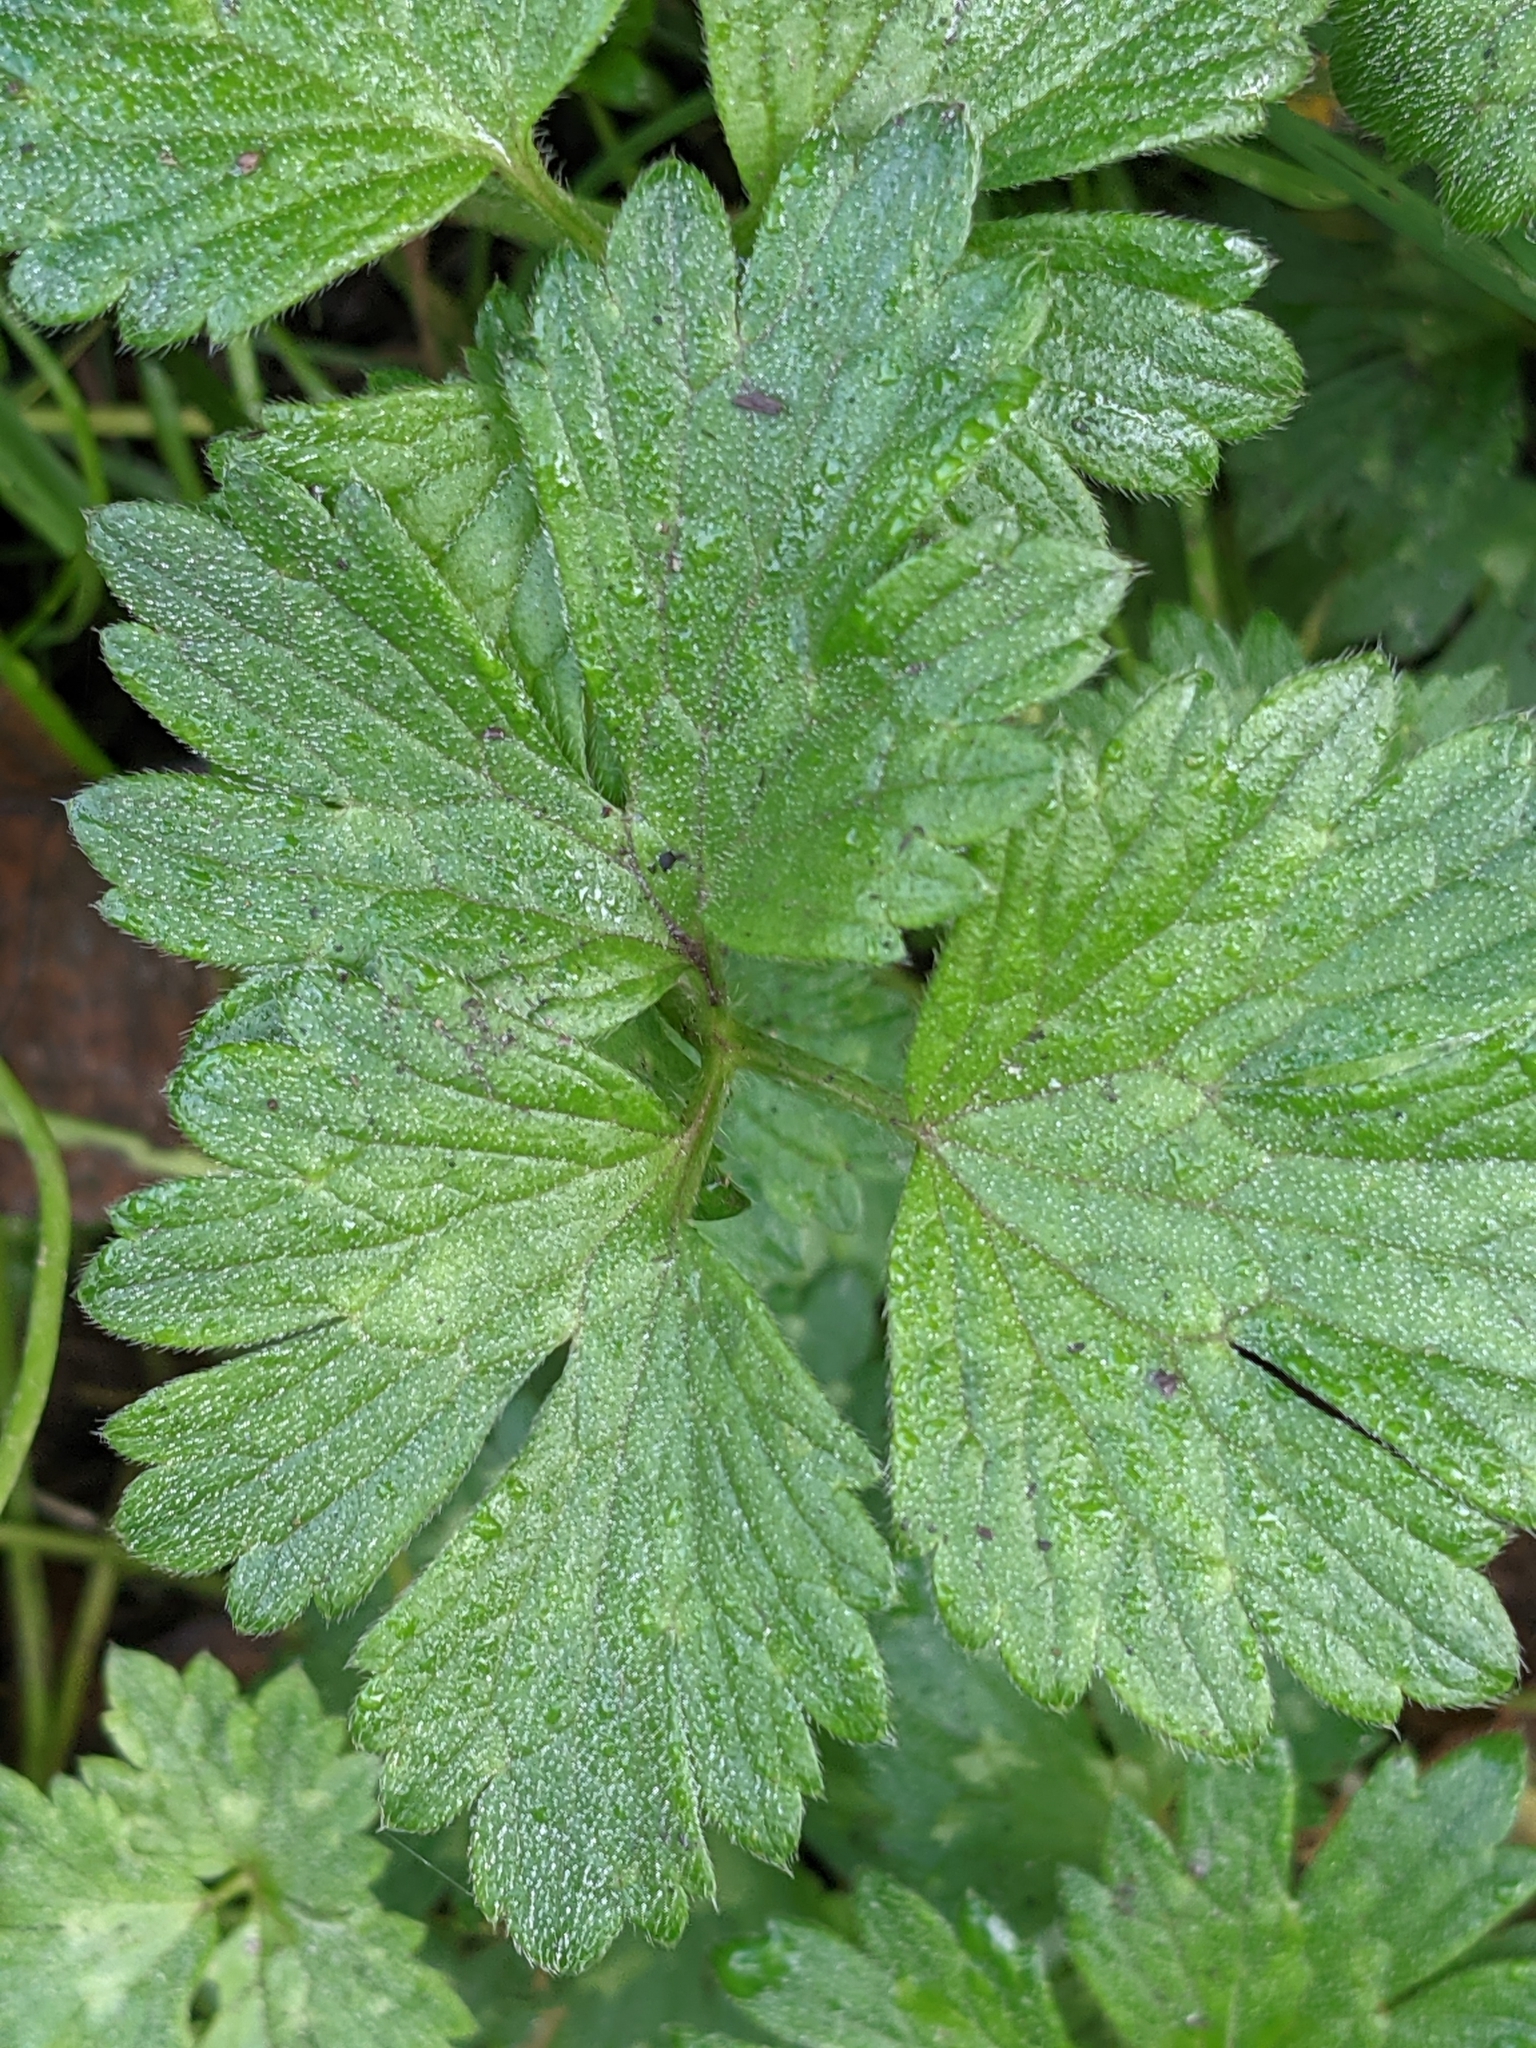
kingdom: Plantae
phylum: Tracheophyta
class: Magnoliopsida
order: Ranunculales
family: Ranunculaceae
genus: Ranunculus
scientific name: Ranunculus repens
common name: Creeping buttercup
